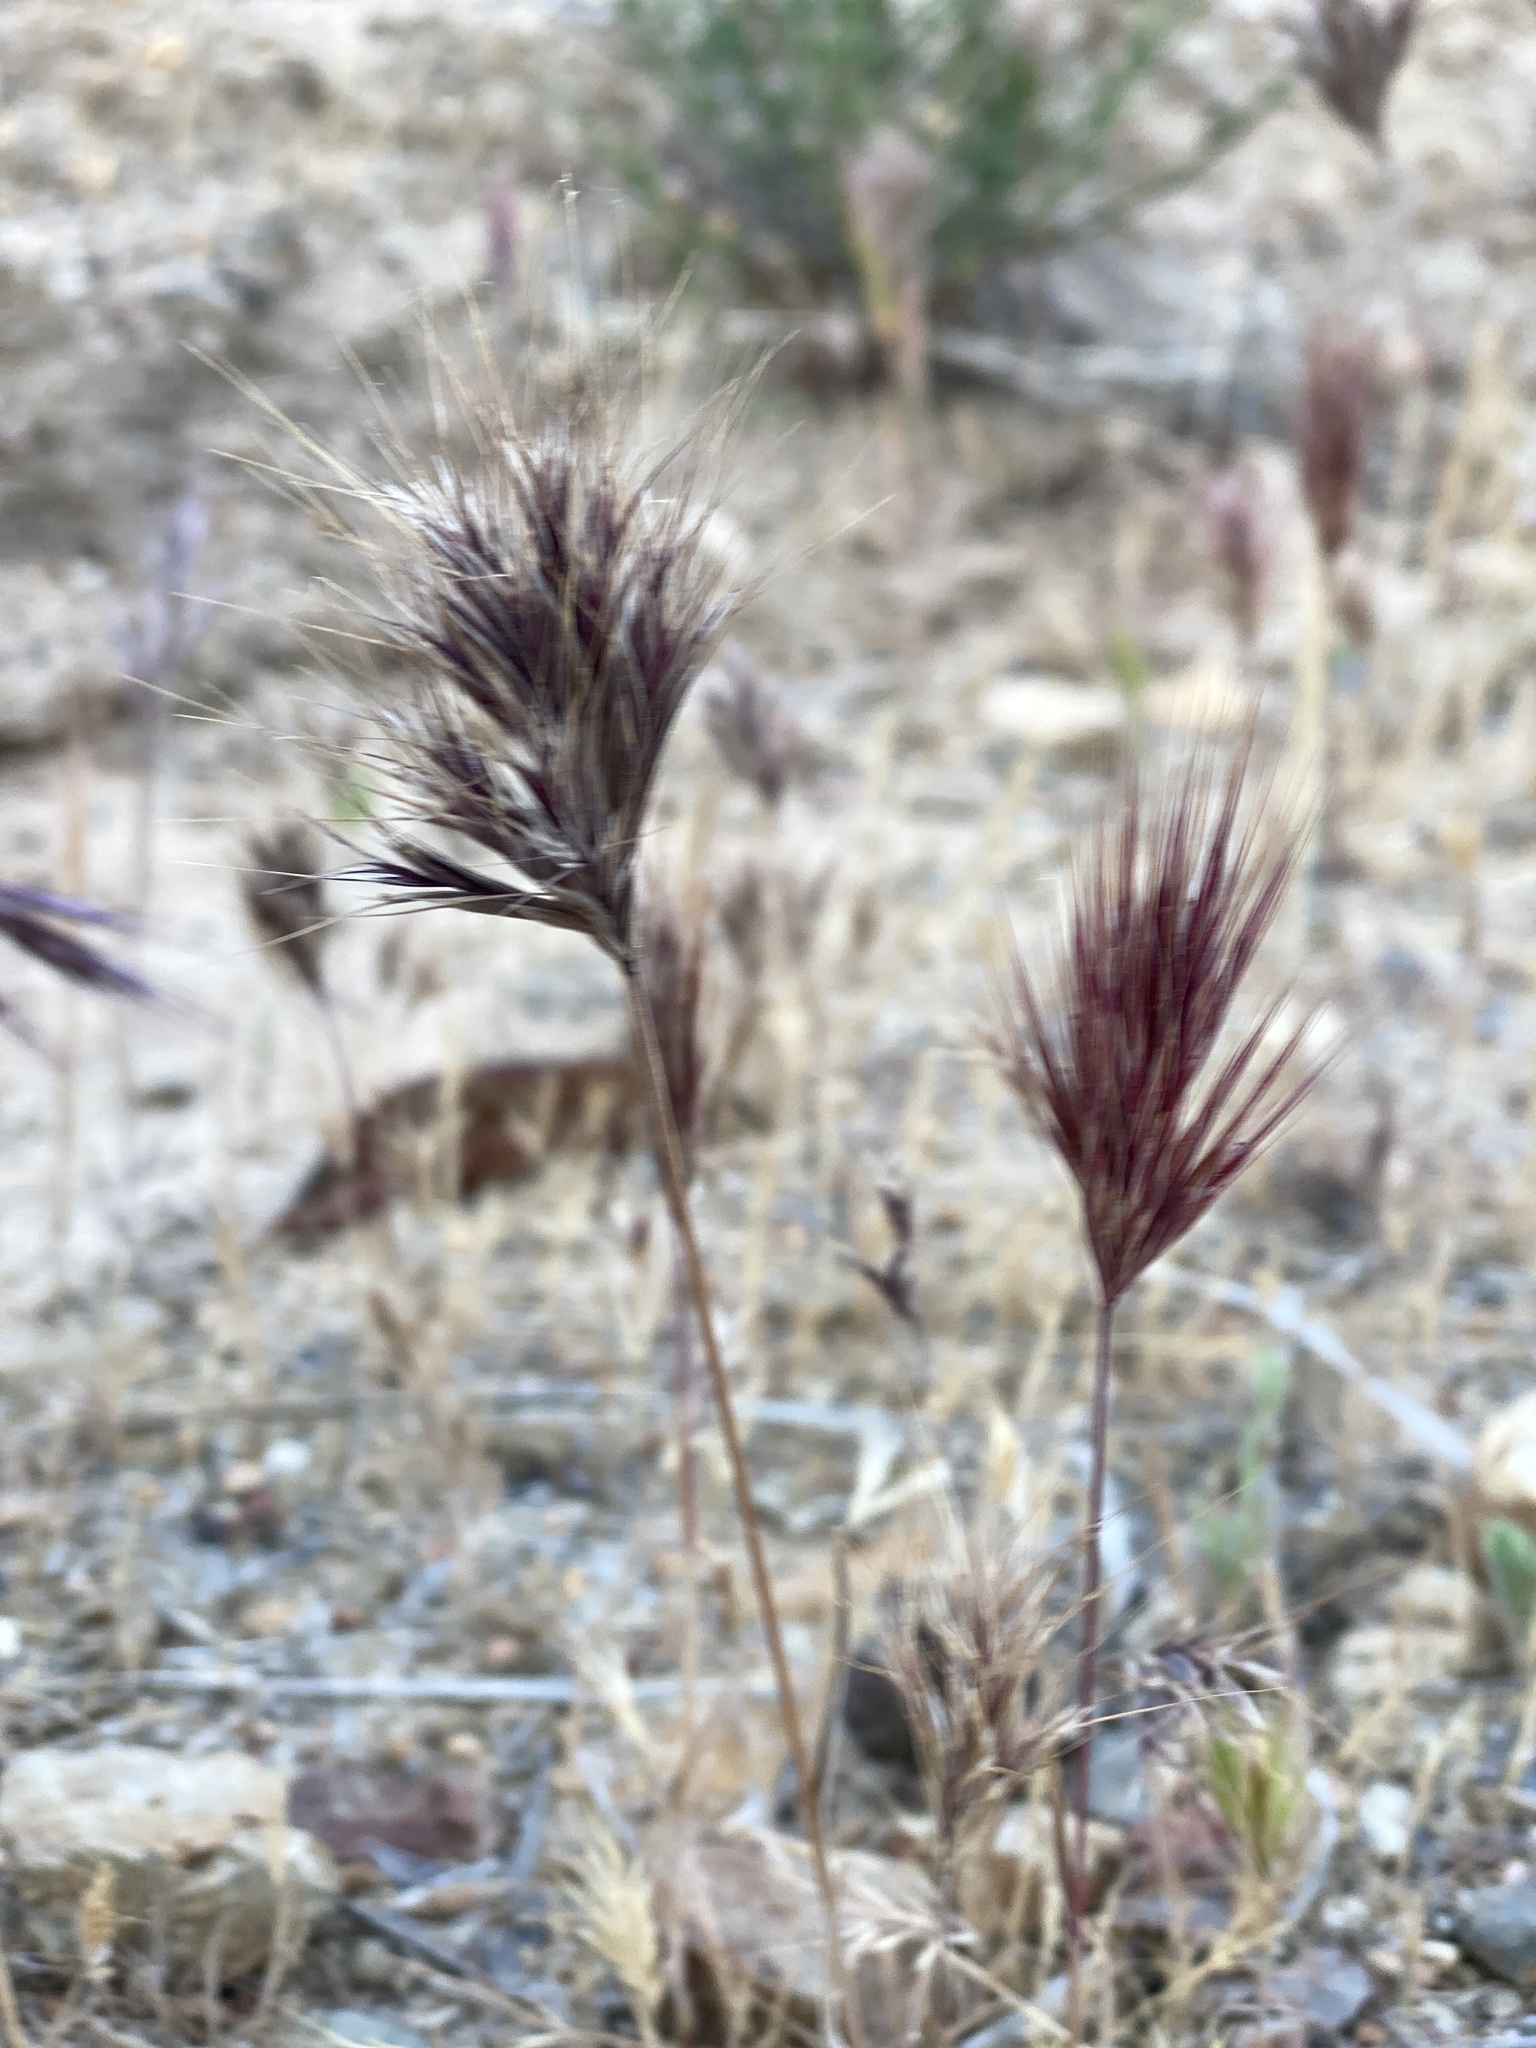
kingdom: Plantae
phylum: Tracheophyta
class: Liliopsida
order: Poales
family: Poaceae
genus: Bromus
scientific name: Bromus rubens
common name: Red brome
